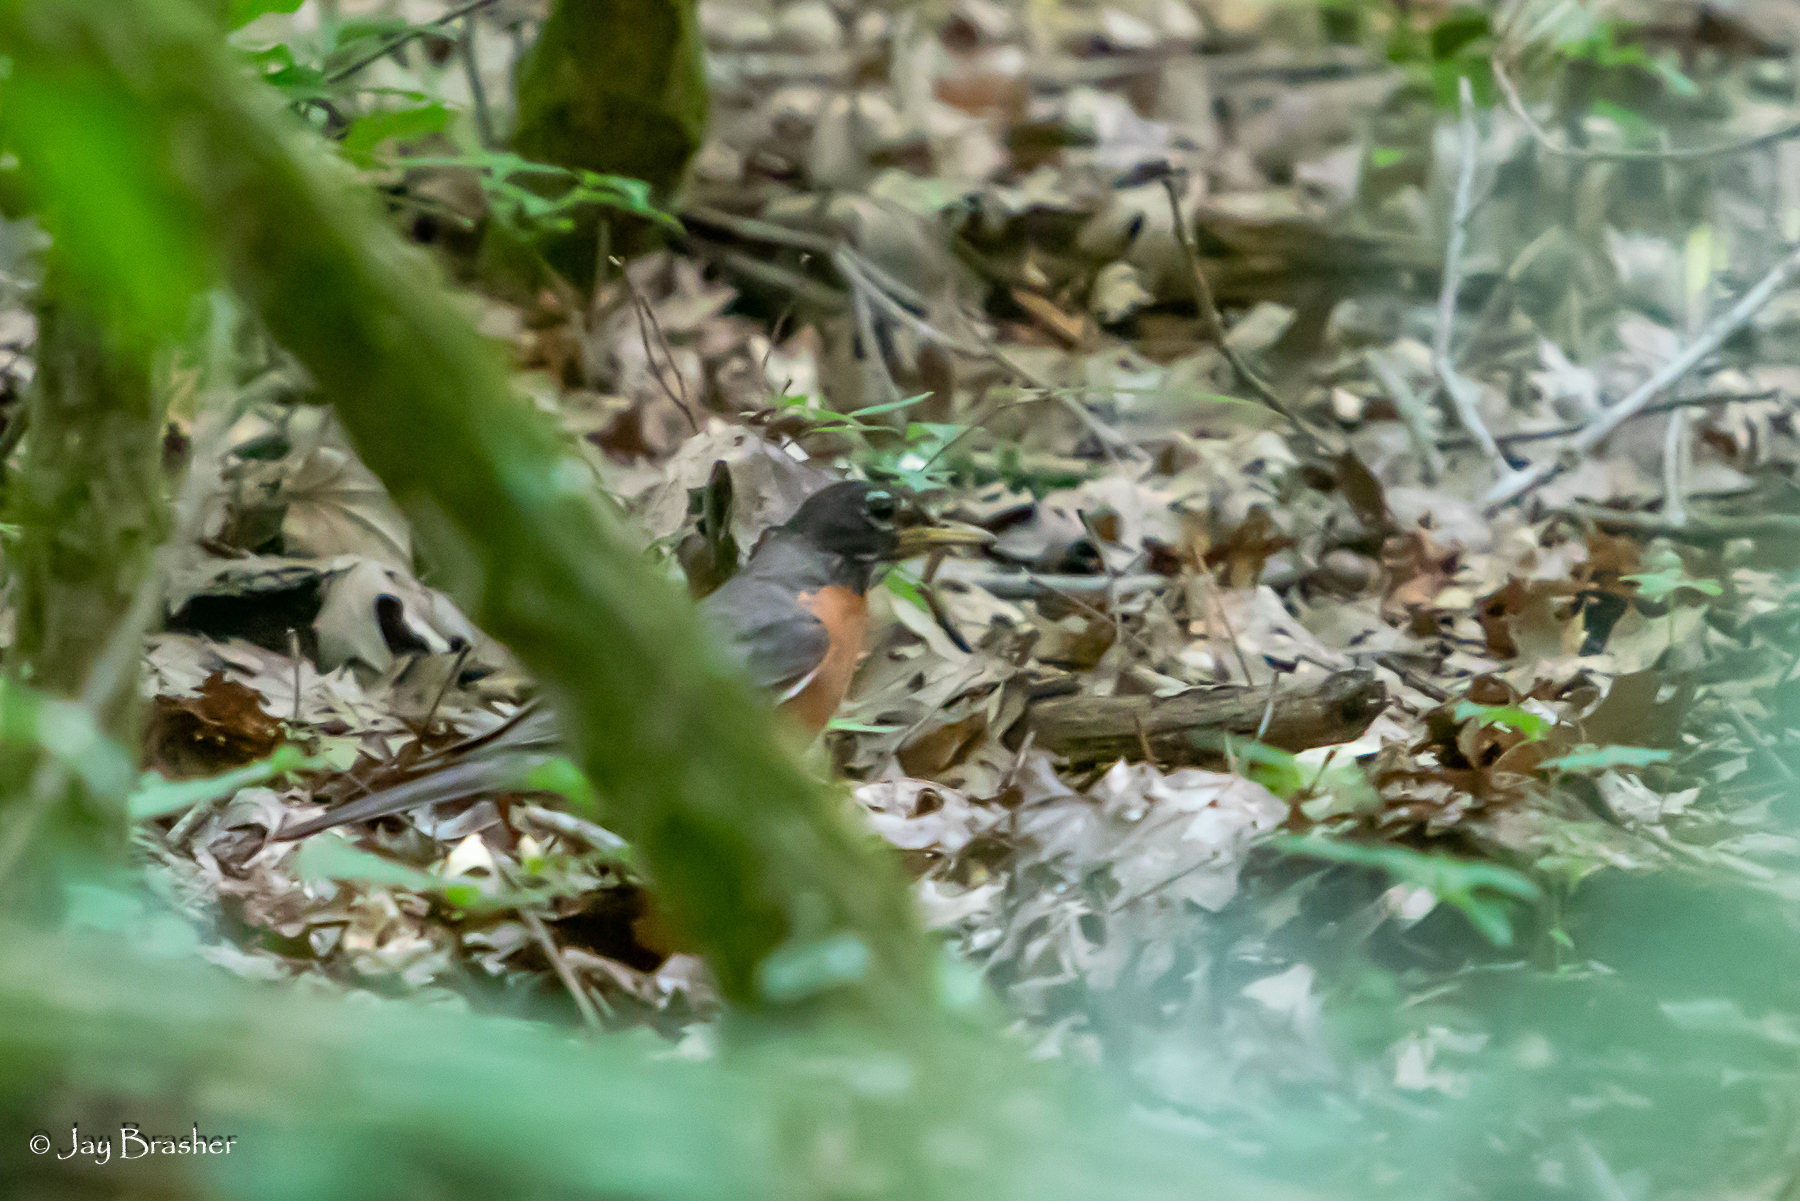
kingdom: Animalia
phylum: Chordata
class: Aves
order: Passeriformes
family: Turdidae
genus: Turdus
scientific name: Turdus migratorius
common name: American robin
